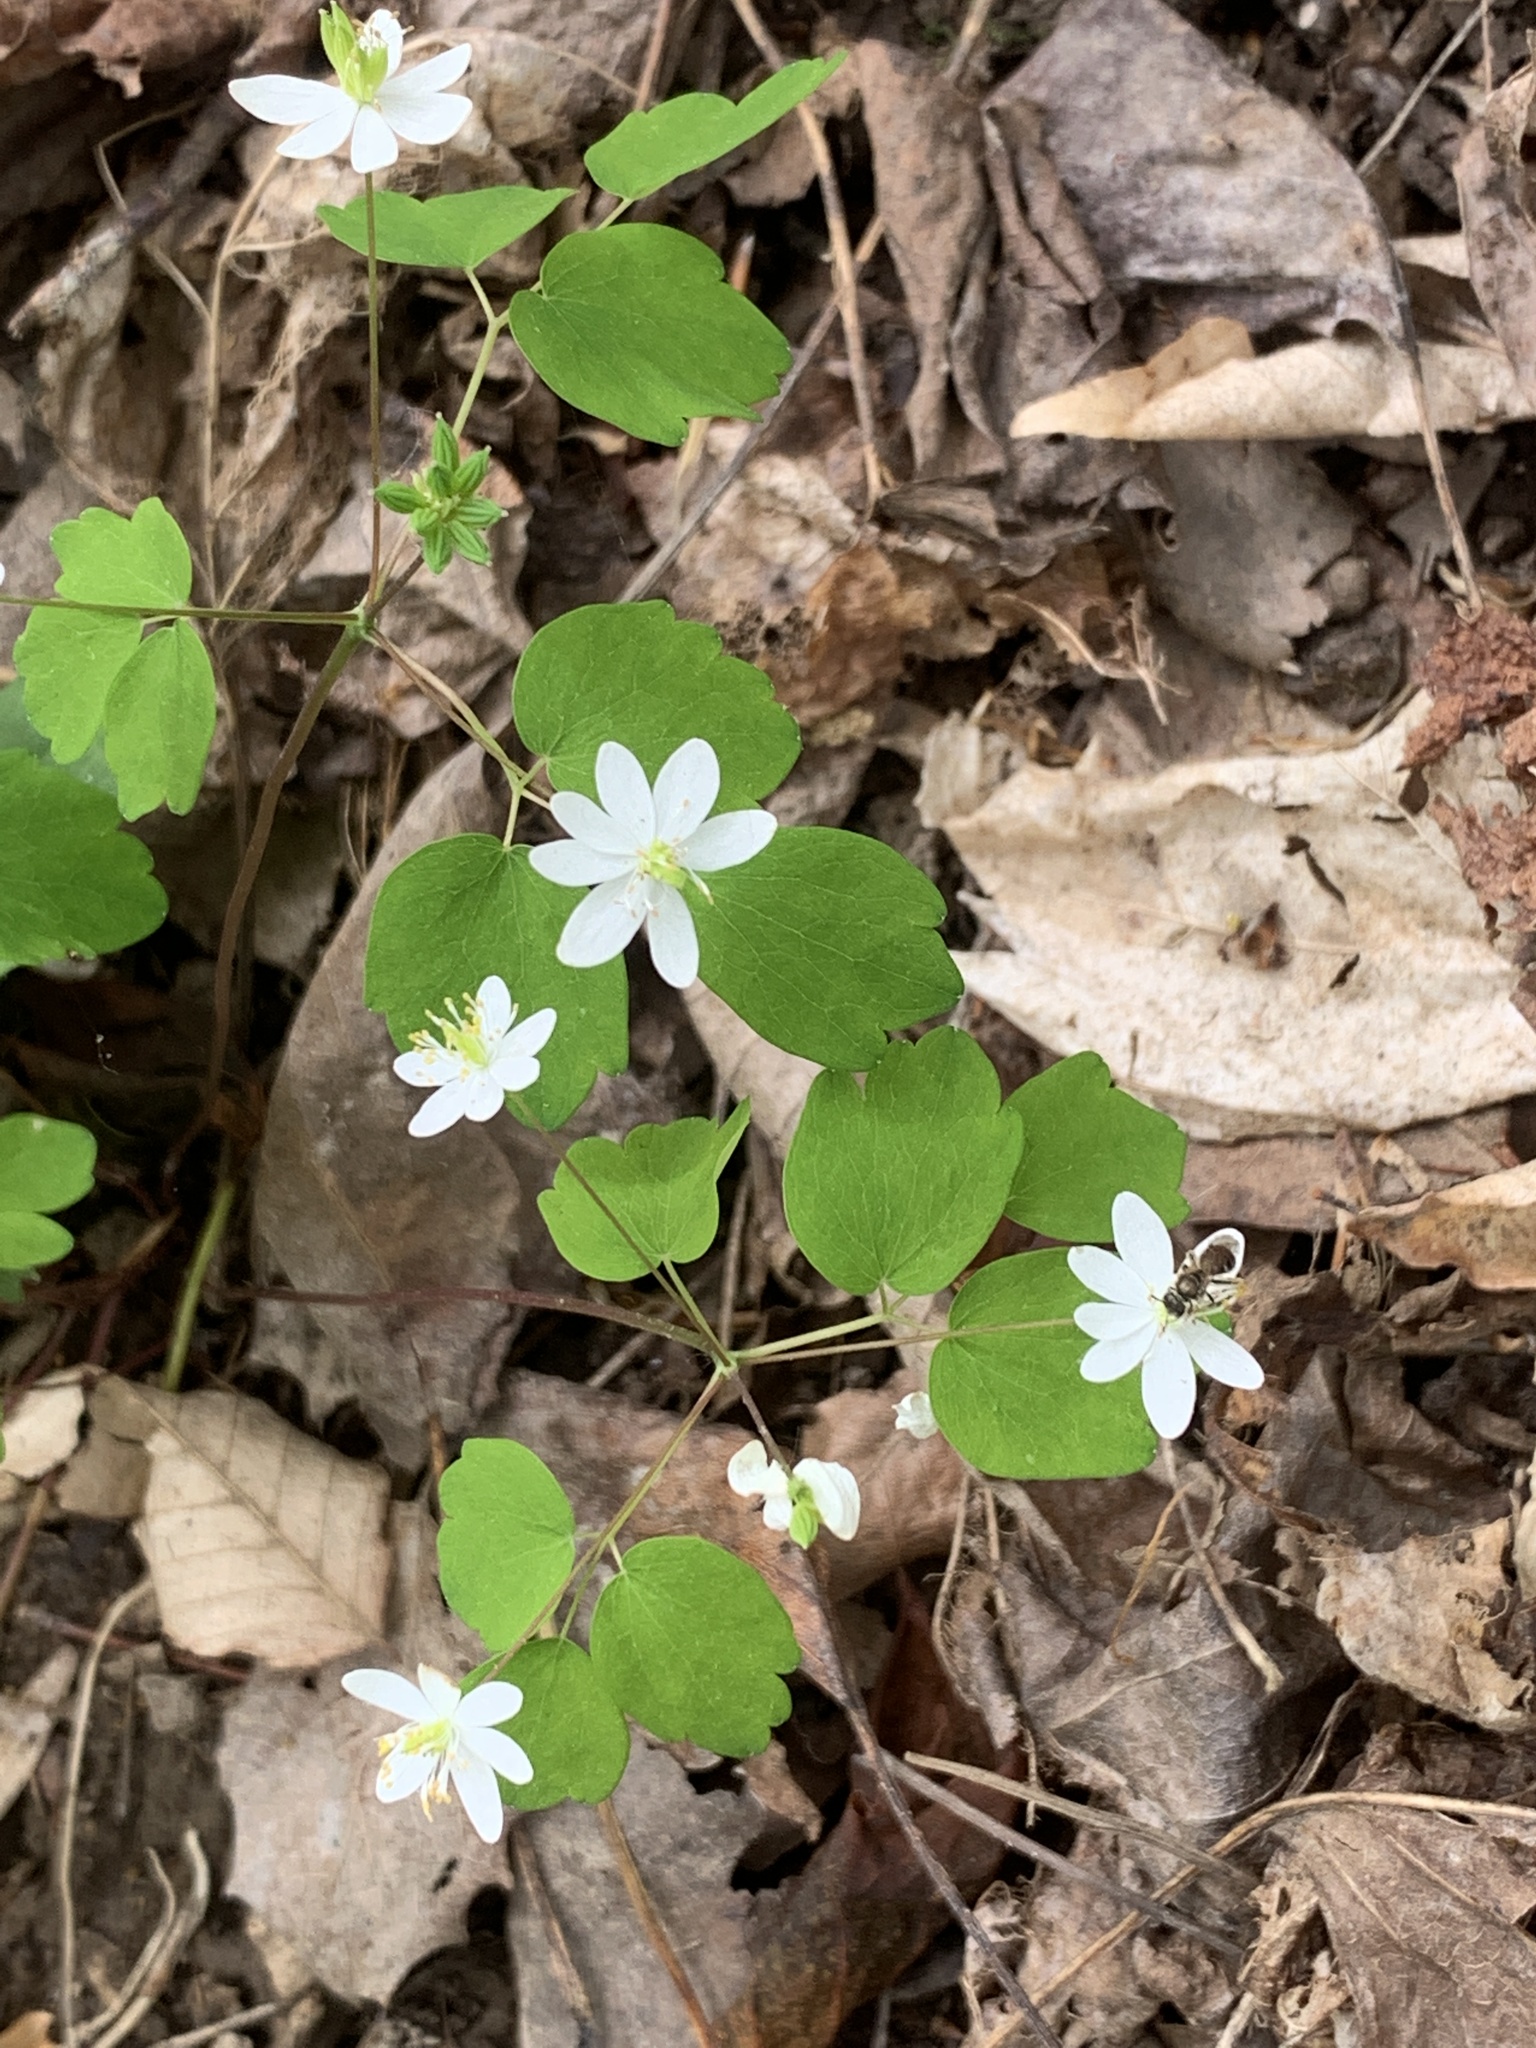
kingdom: Plantae
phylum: Tracheophyta
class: Magnoliopsida
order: Ranunculales
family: Ranunculaceae
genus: Thalictrum
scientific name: Thalictrum thalictroides
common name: Rue-anemone
